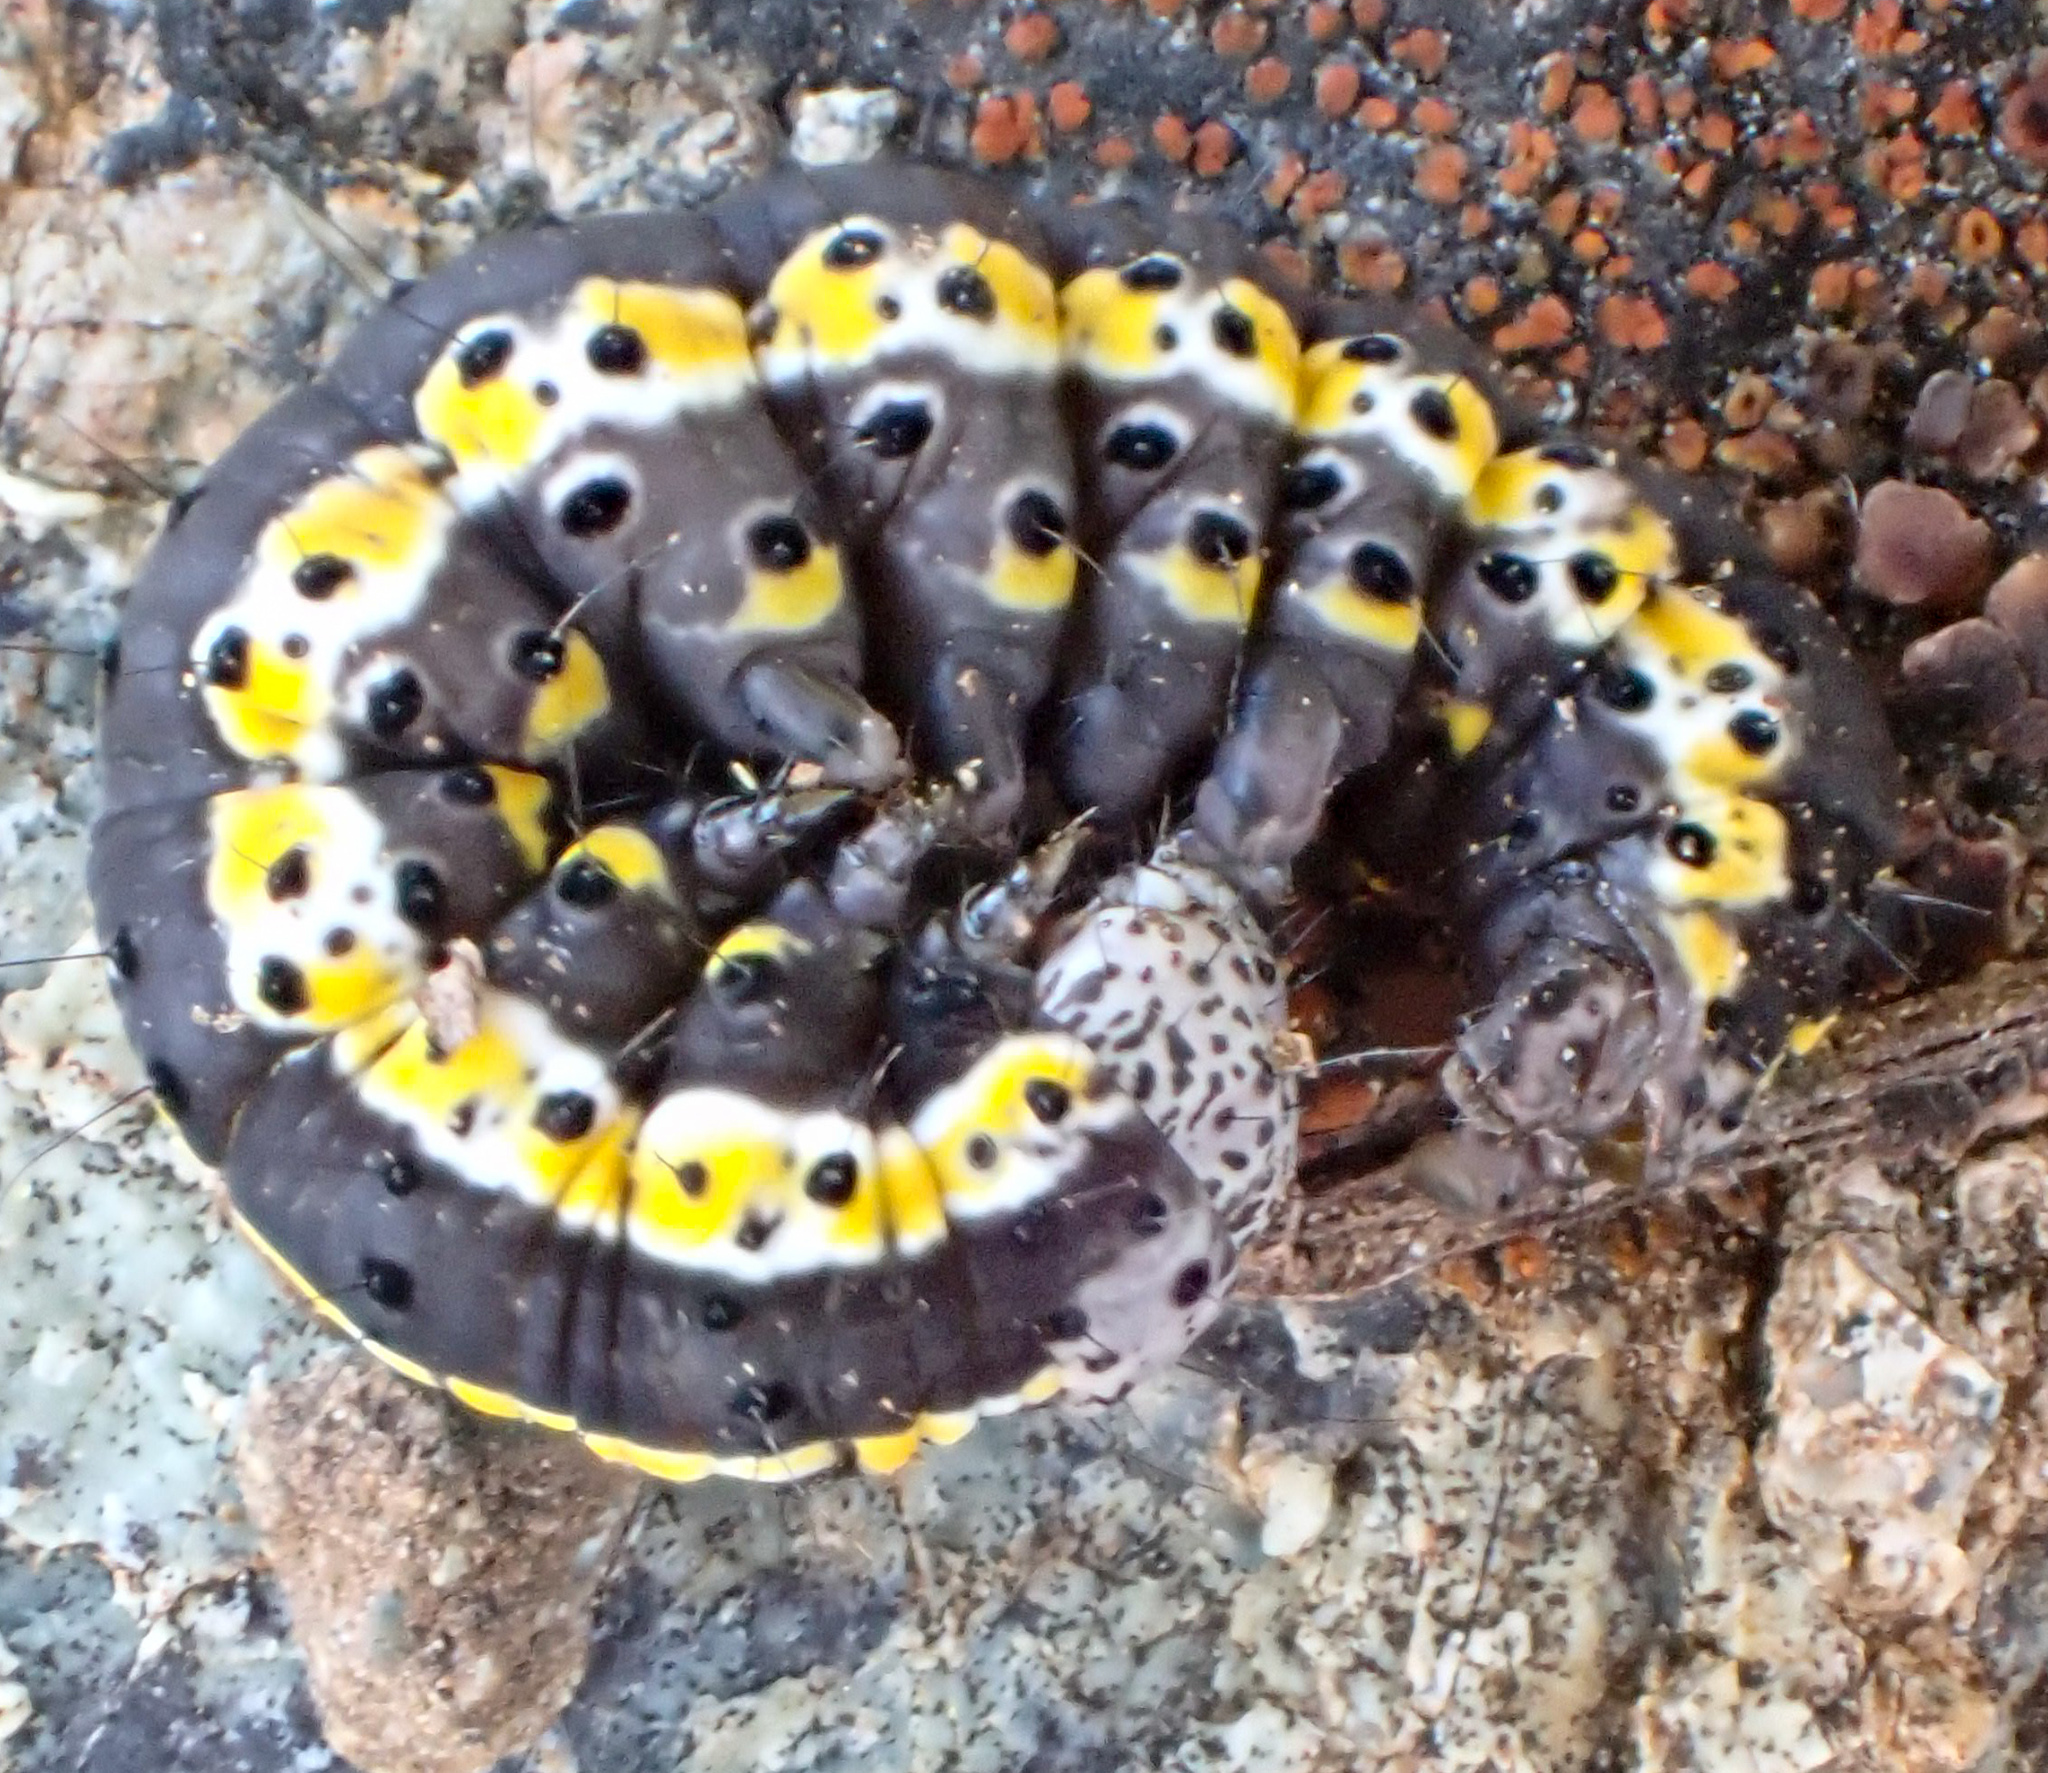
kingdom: Animalia
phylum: Arthropoda
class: Insecta
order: Lepidoptera
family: Noctuidae
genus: Sympistis
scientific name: Sympistis perscripta
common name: Scribbled sallow
